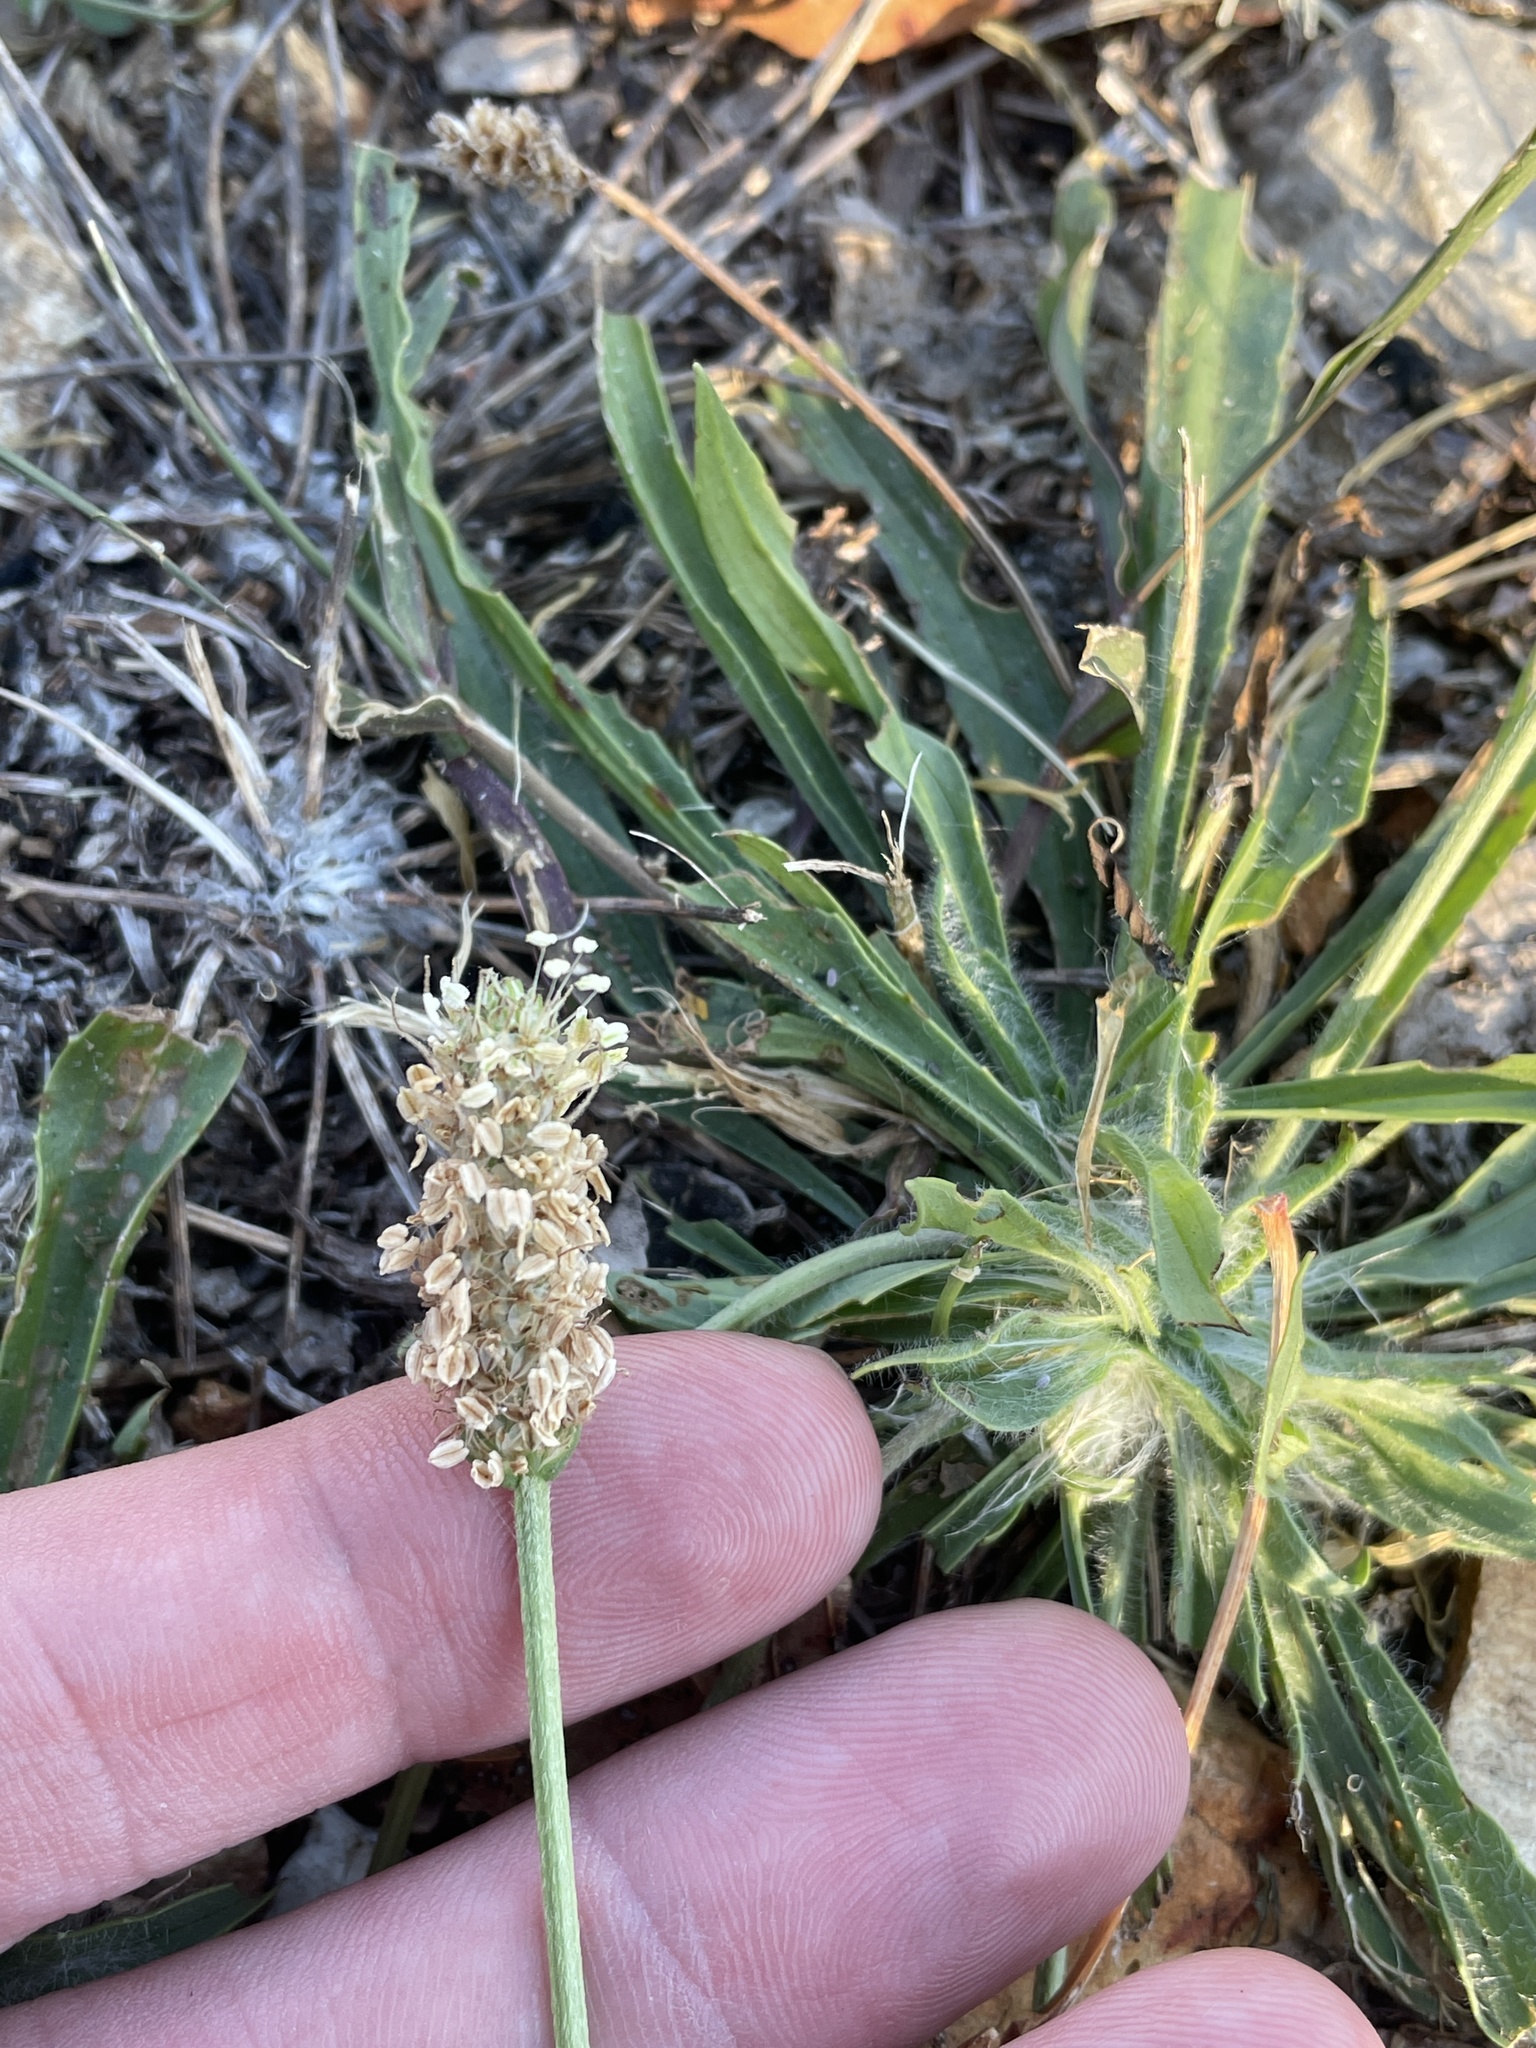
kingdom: Plantae
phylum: Tracheophyta
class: Magnoliopsida
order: Lamiales
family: Plantaginaceae
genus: Plantago
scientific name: Plantago lanceolata
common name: Ribwort plantain
